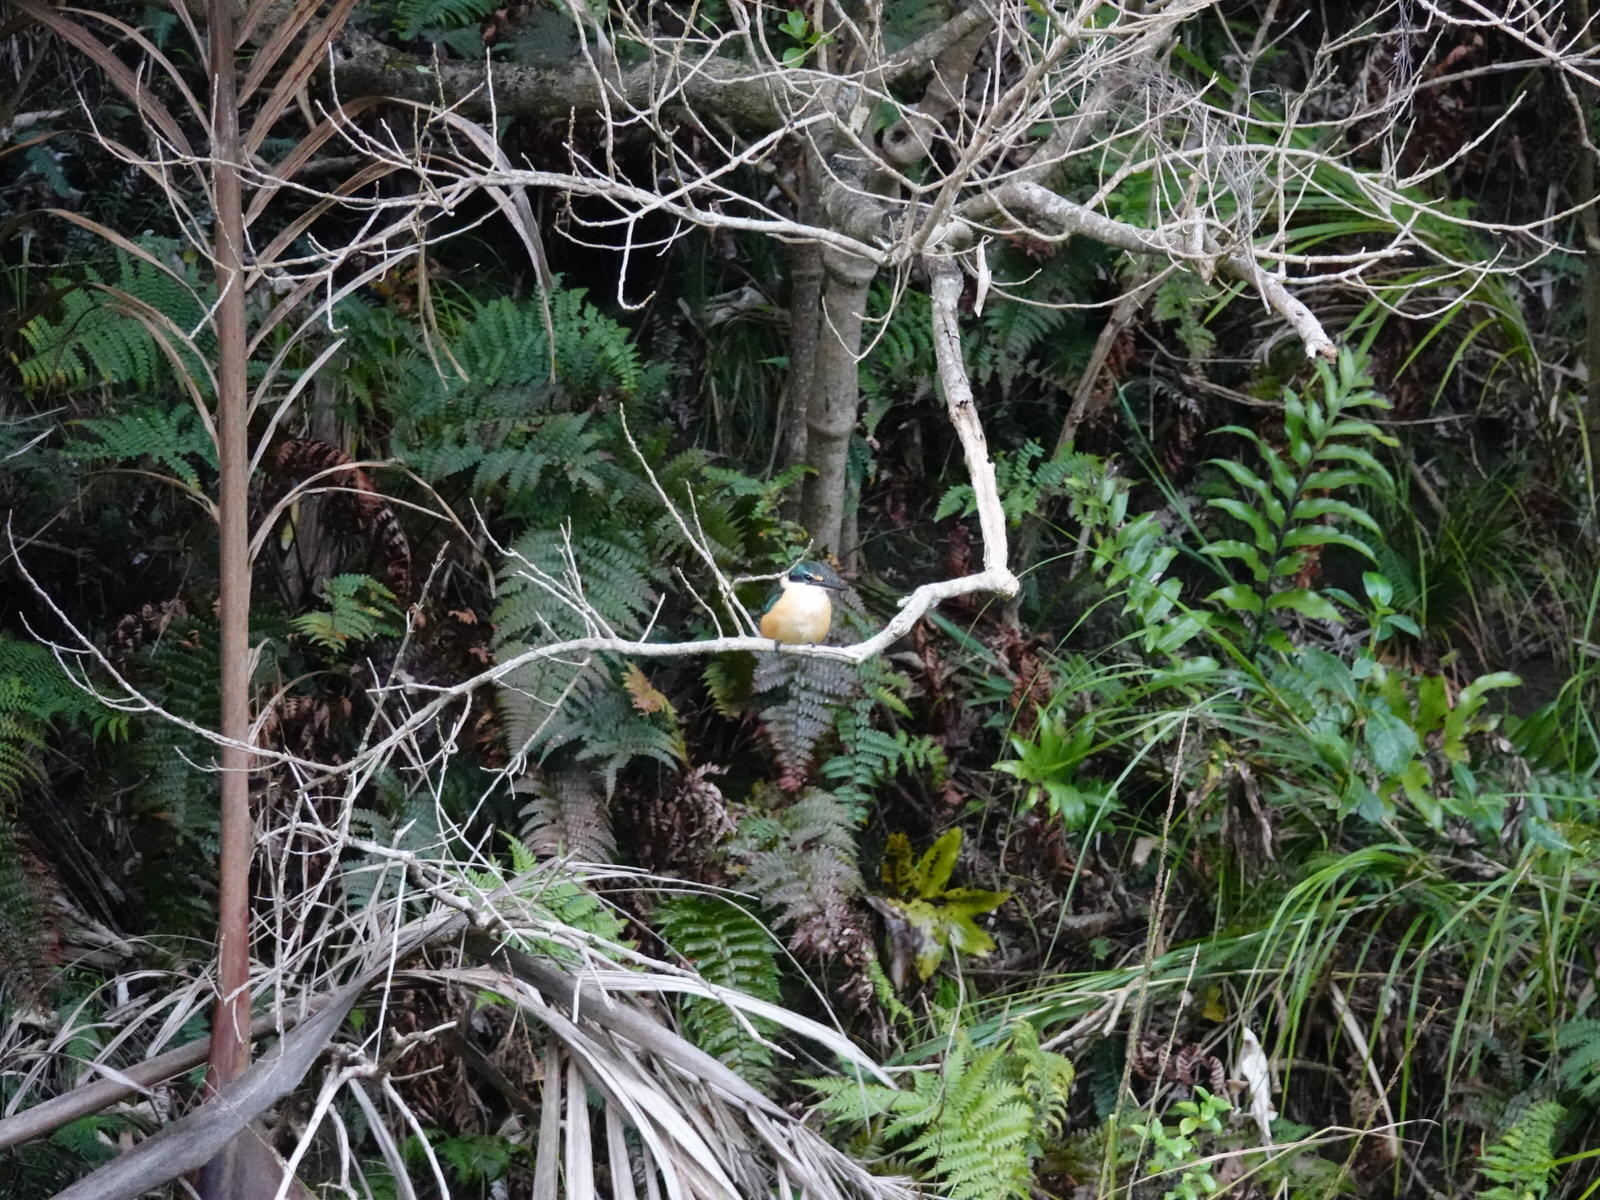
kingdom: Animalia
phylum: Chordata
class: Aves
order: Coraciiformes
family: Alcedinidae
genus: Todiramphus
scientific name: Todiramphus sanctus
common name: Sacred kingfisher
